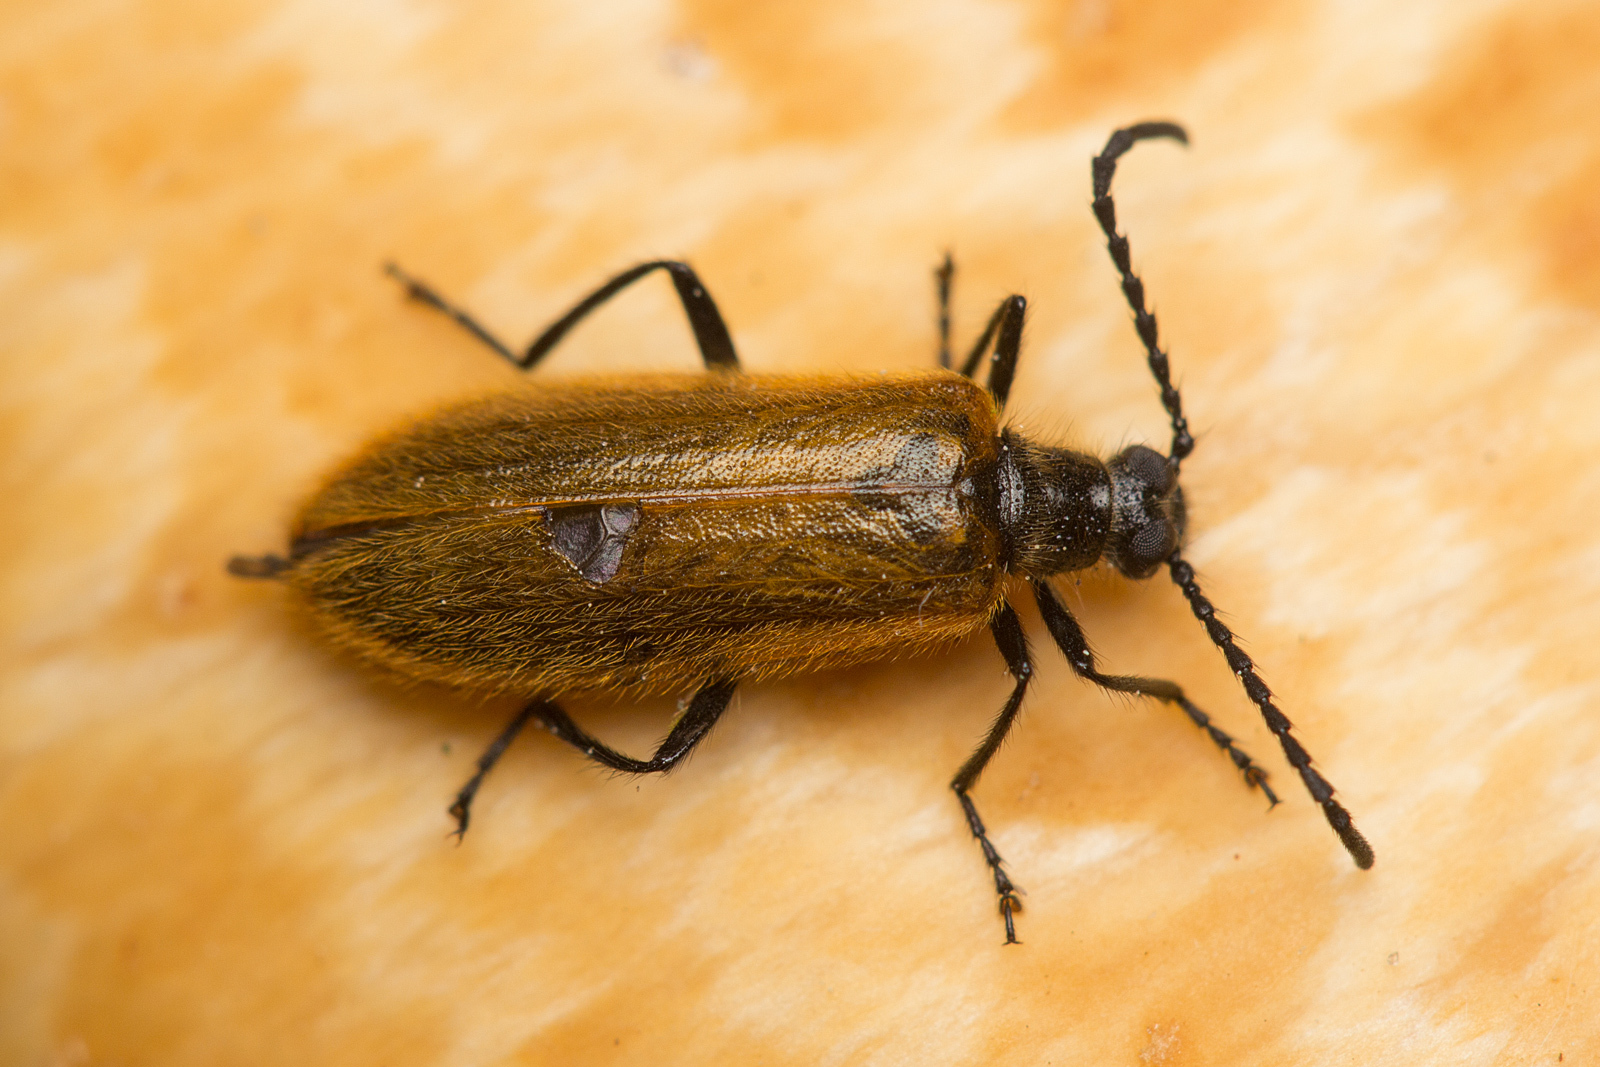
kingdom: Animalia
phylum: Arthropoda
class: Insecta
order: Coleoptera
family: Tenebrionidae
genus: Lagria
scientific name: Lagria hirta
